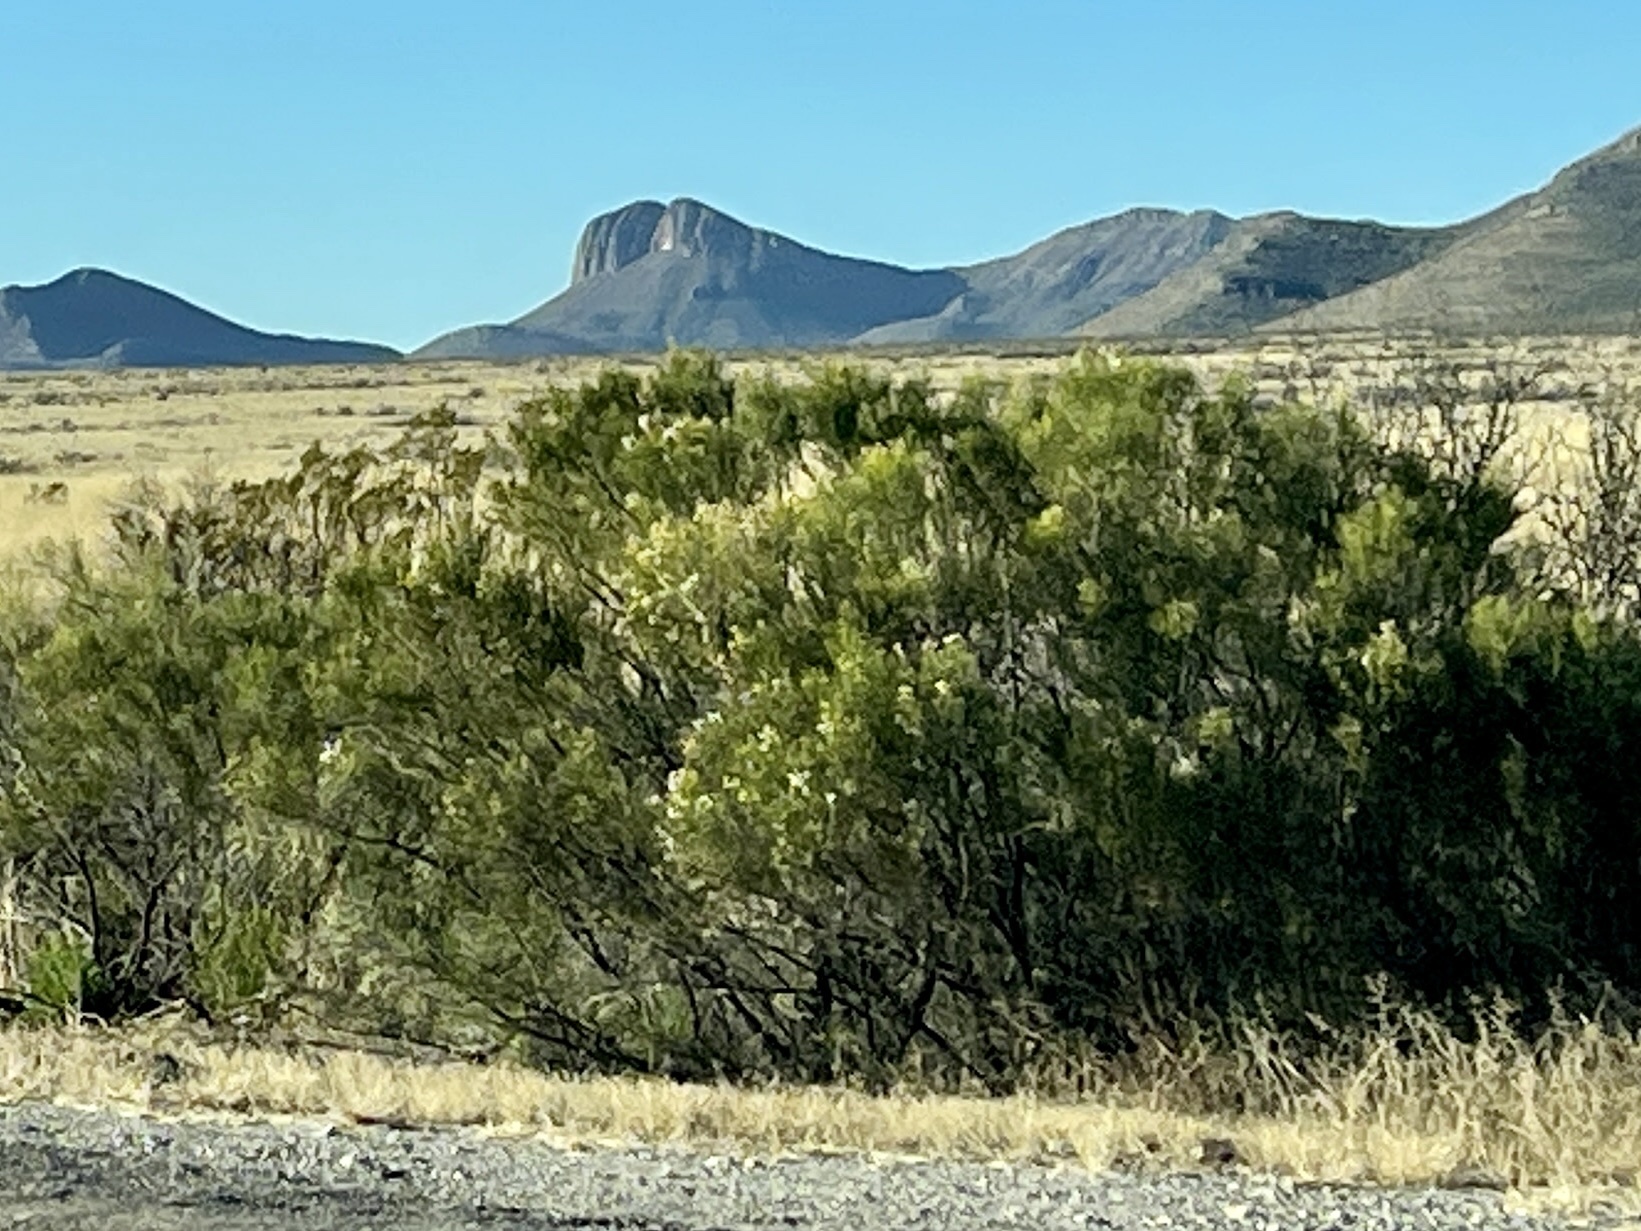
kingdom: Plantae
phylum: Tracheophyta
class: Magnoliopsida
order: Asterales
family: Asteraceae
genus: Baccharis
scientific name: Baccharis sarothroides
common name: Desert-broom
